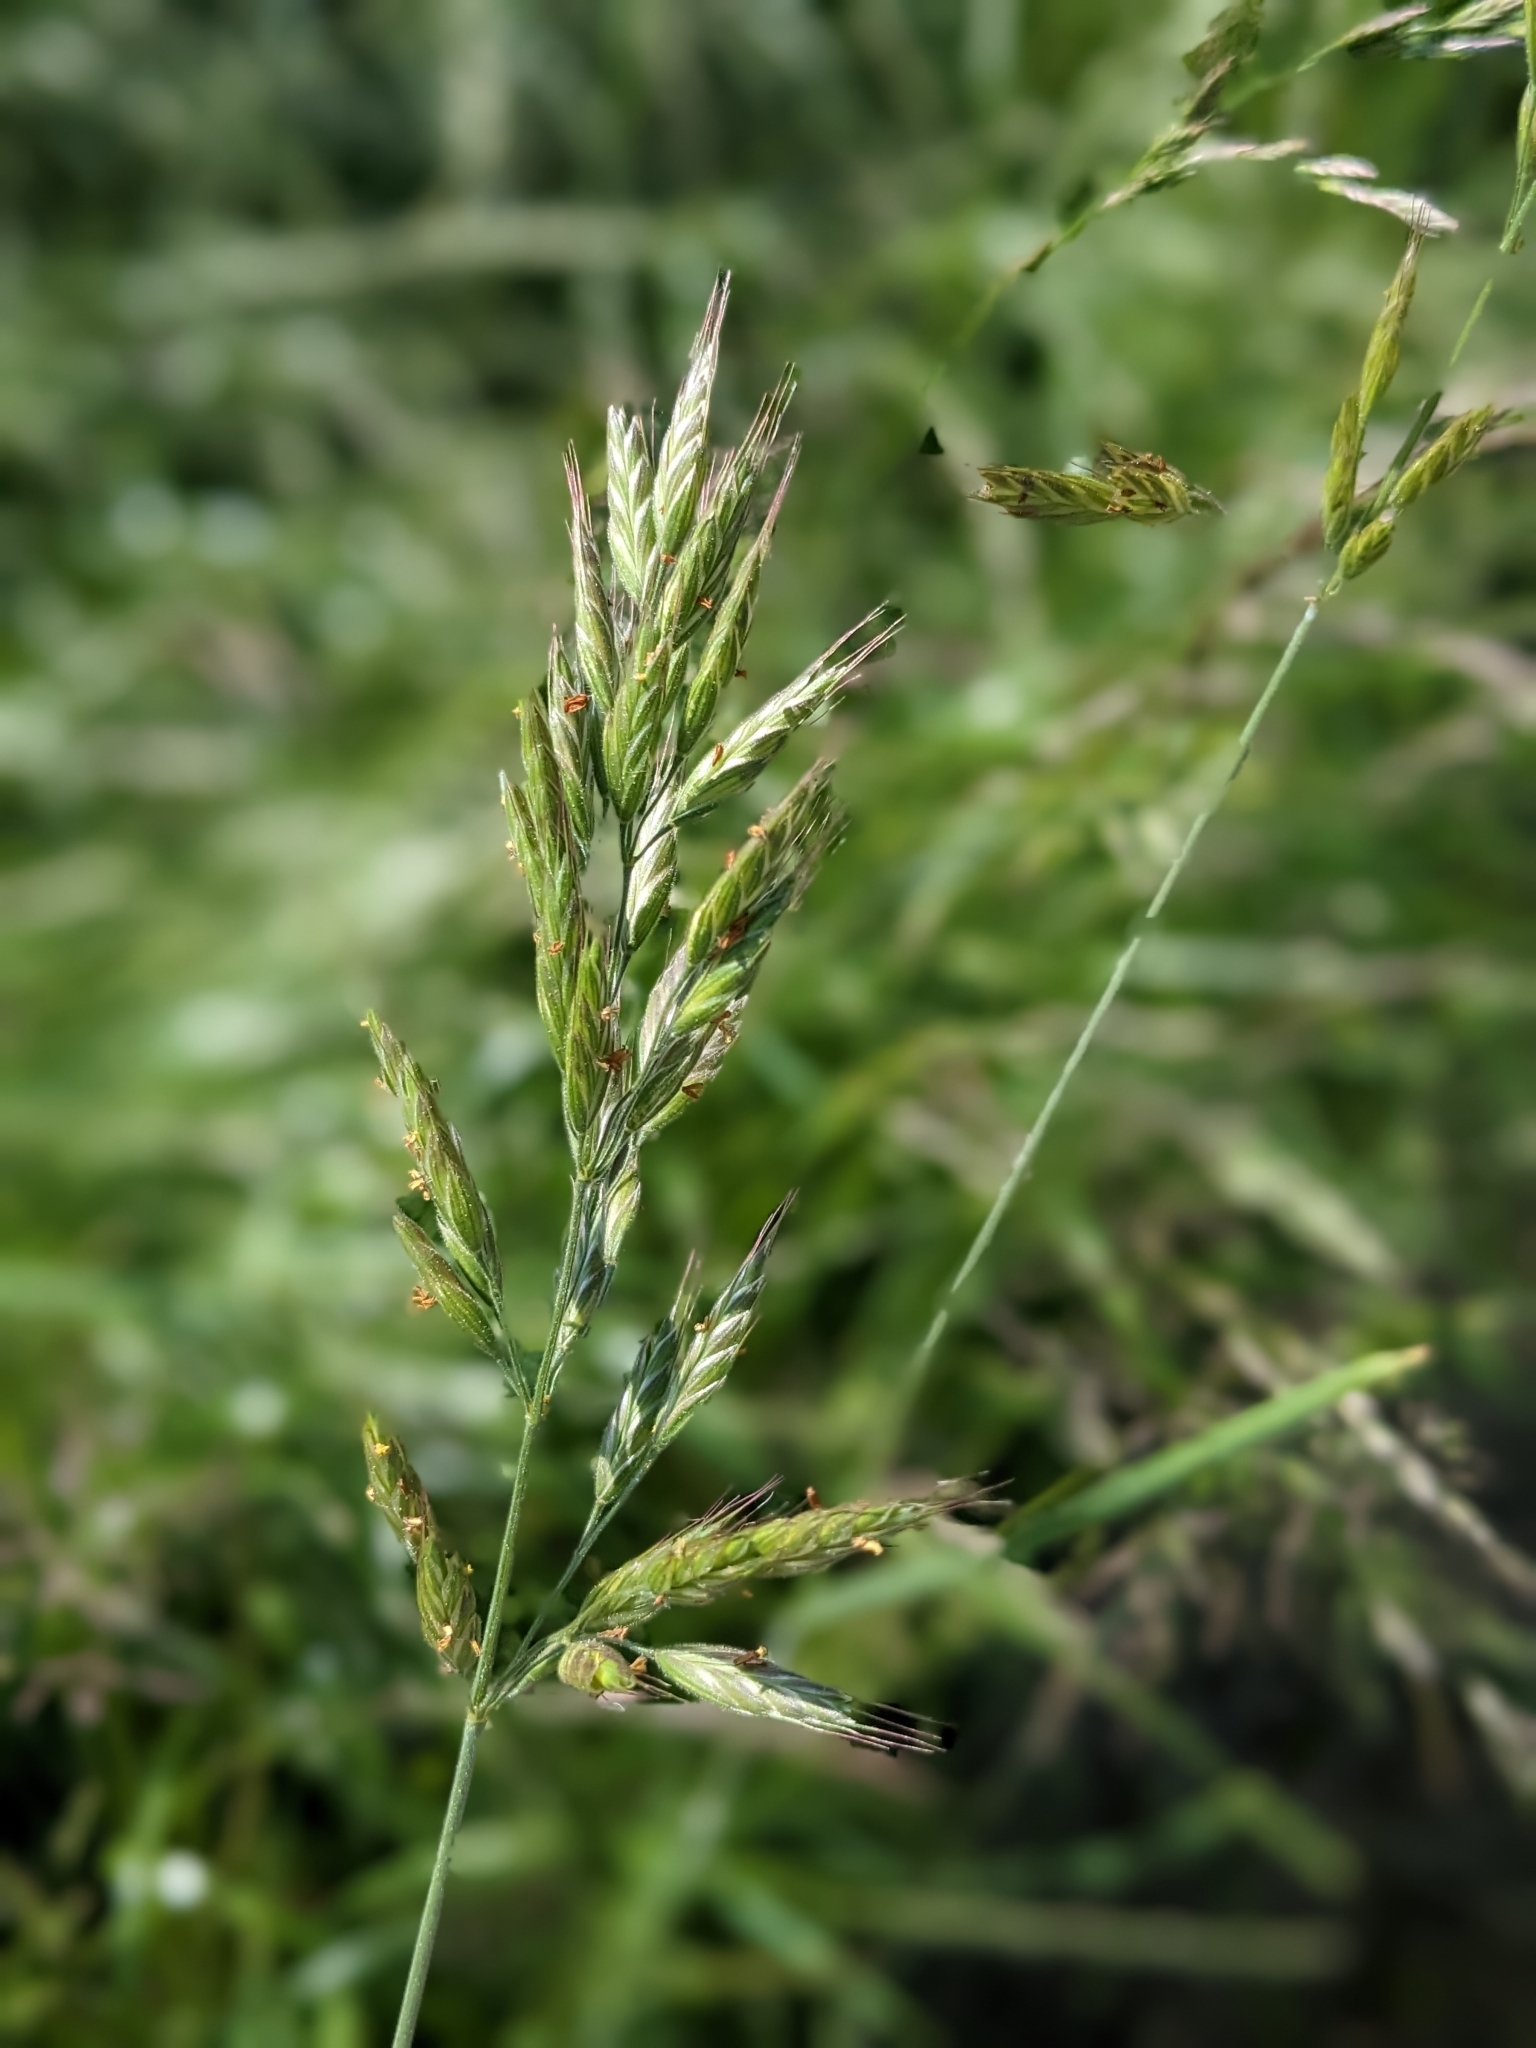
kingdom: Plantae
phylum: Tracheophyta
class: Liliopsida
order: Poales
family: Poaceae
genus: Bromus
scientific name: Bromus hordeaceus
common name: Soft brome
